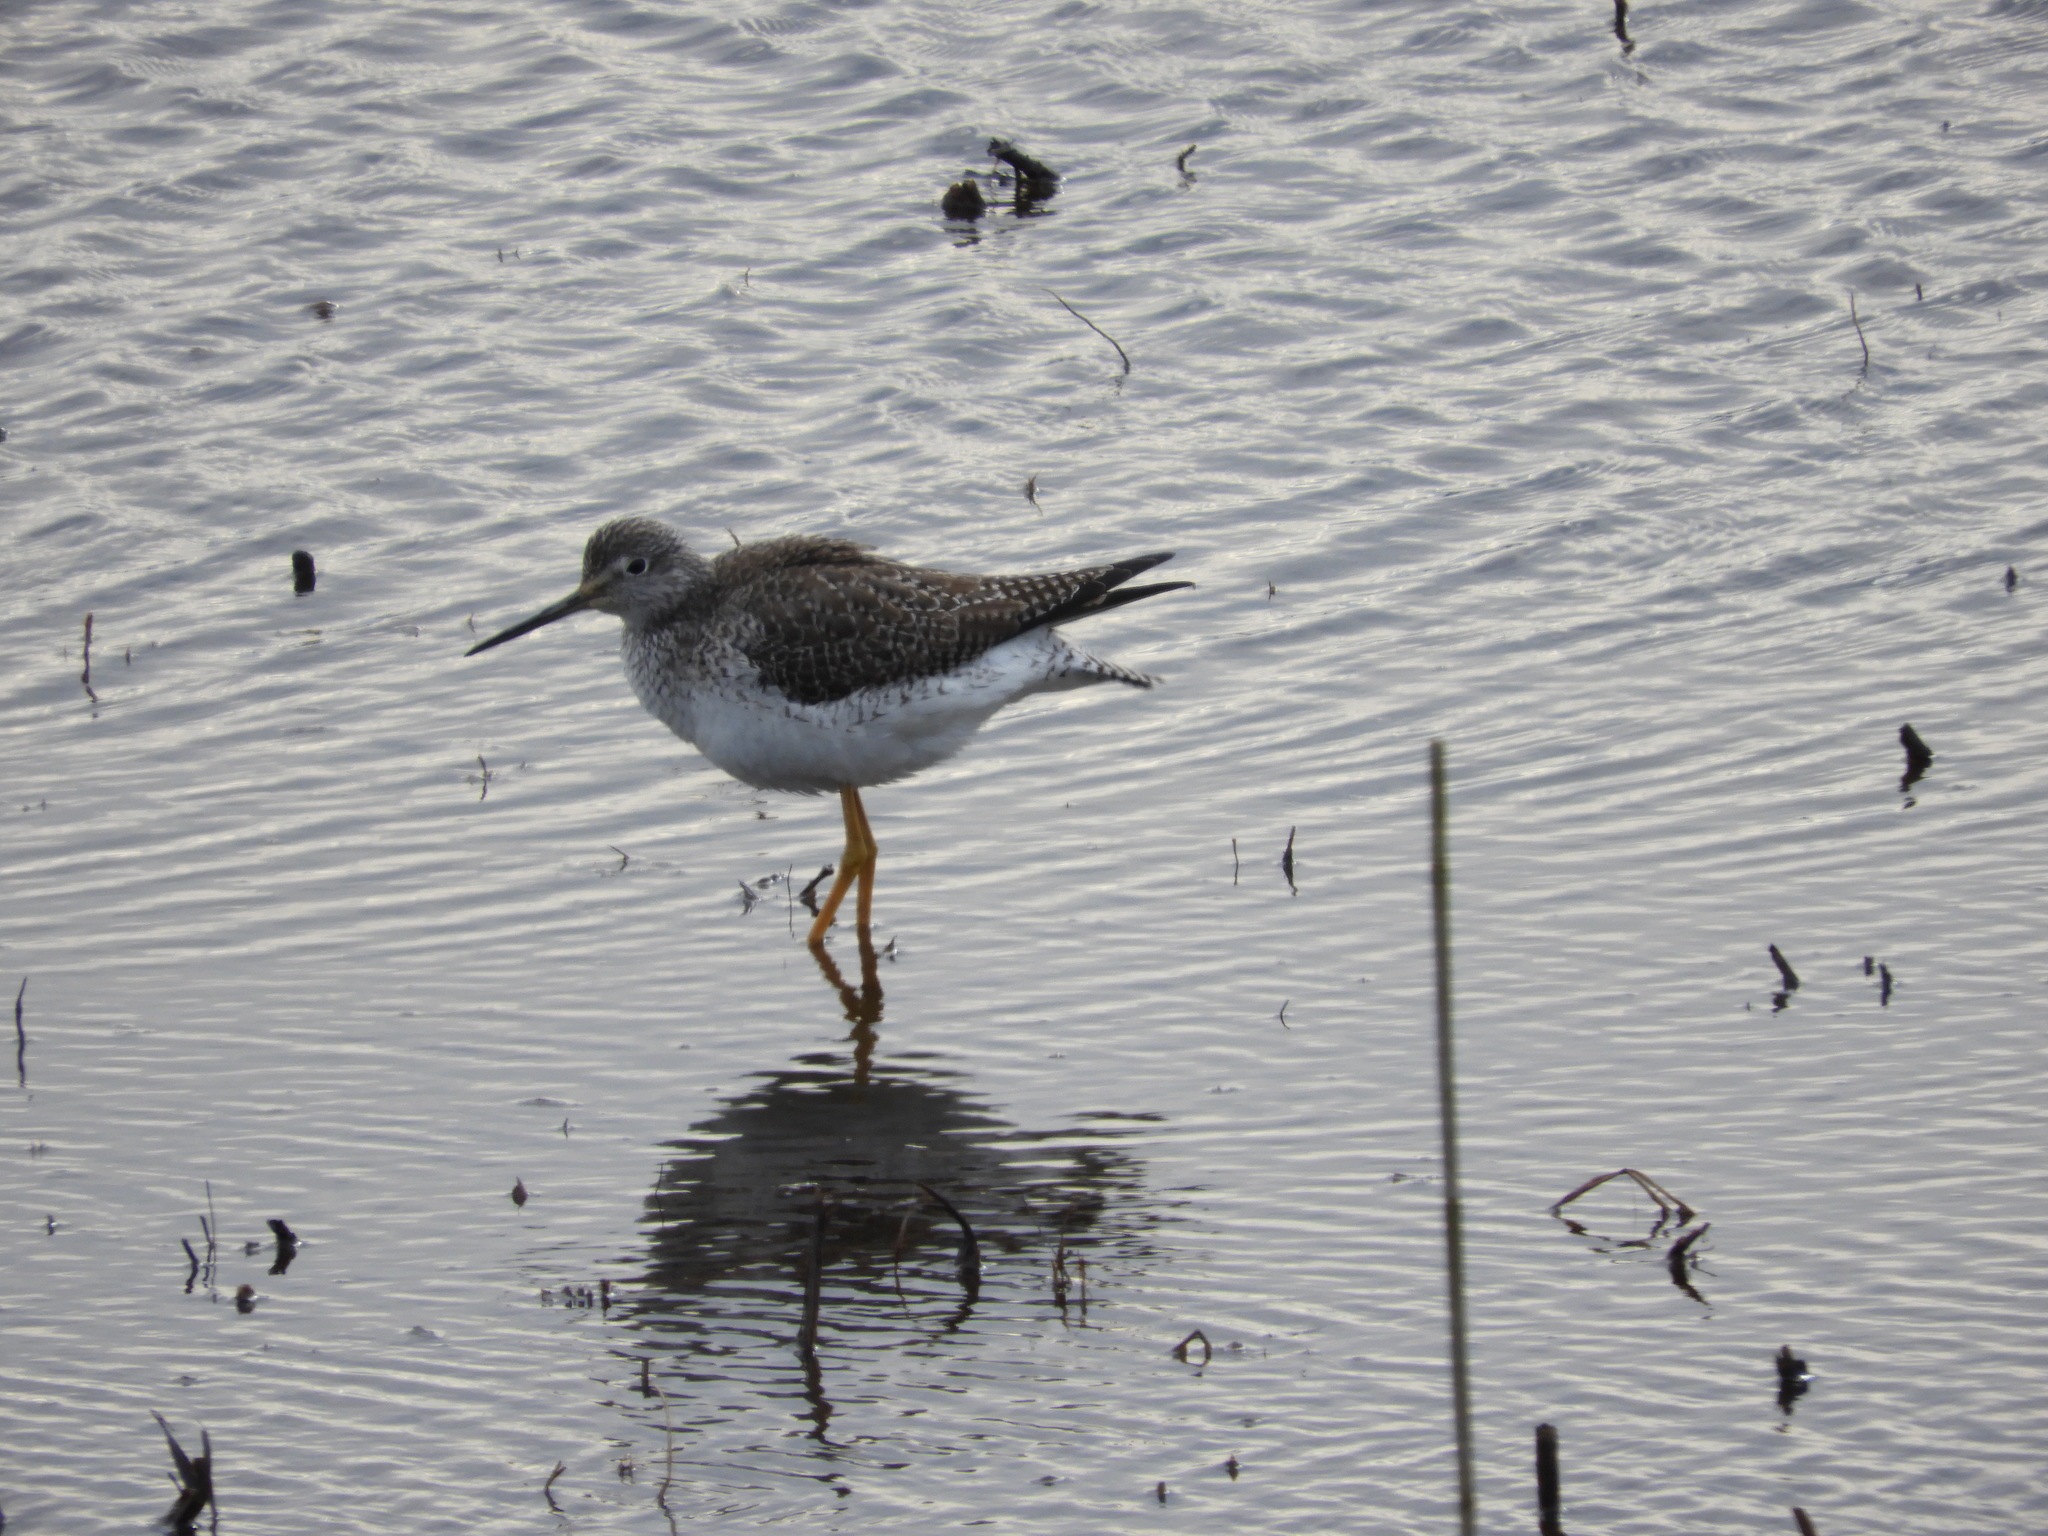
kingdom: Animalia
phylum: Chordata
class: Aves
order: Charadriiformes
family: Scolopacidae
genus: Tringa
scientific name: Tringa melanoleuca
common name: Greater yellowlegs
